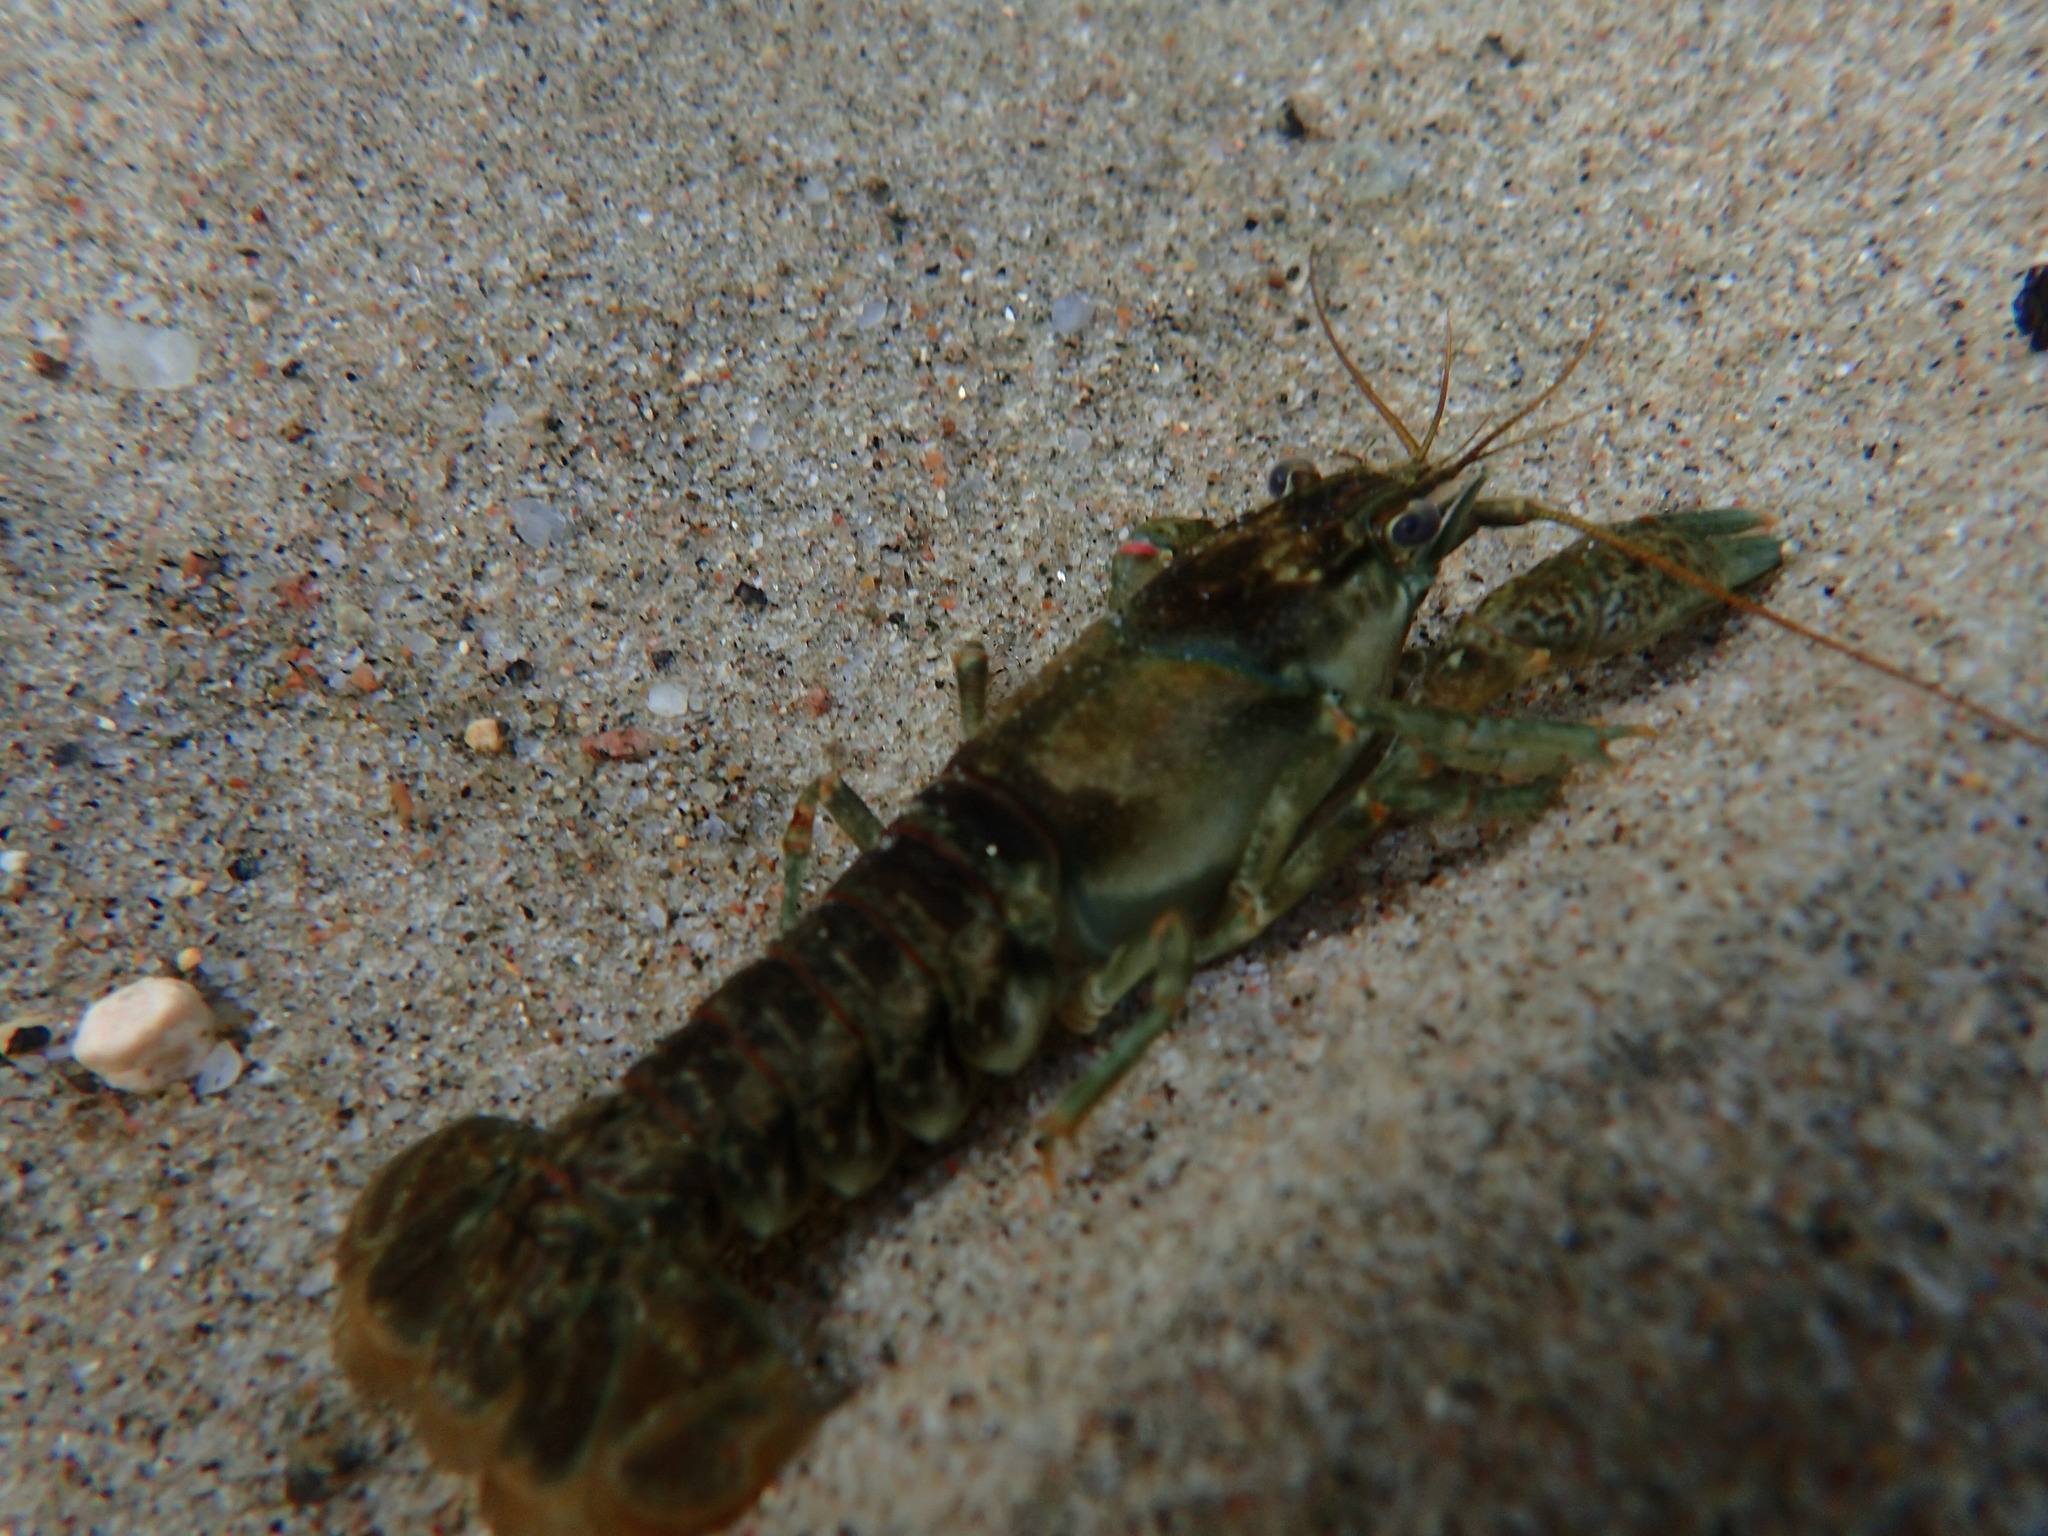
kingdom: Animalia
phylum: Arthropoda
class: Malacostraca
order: Decapoda
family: Cambaridae
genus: Faxonius
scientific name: Faxonius propinquus
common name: Northern clearwater crayfish
